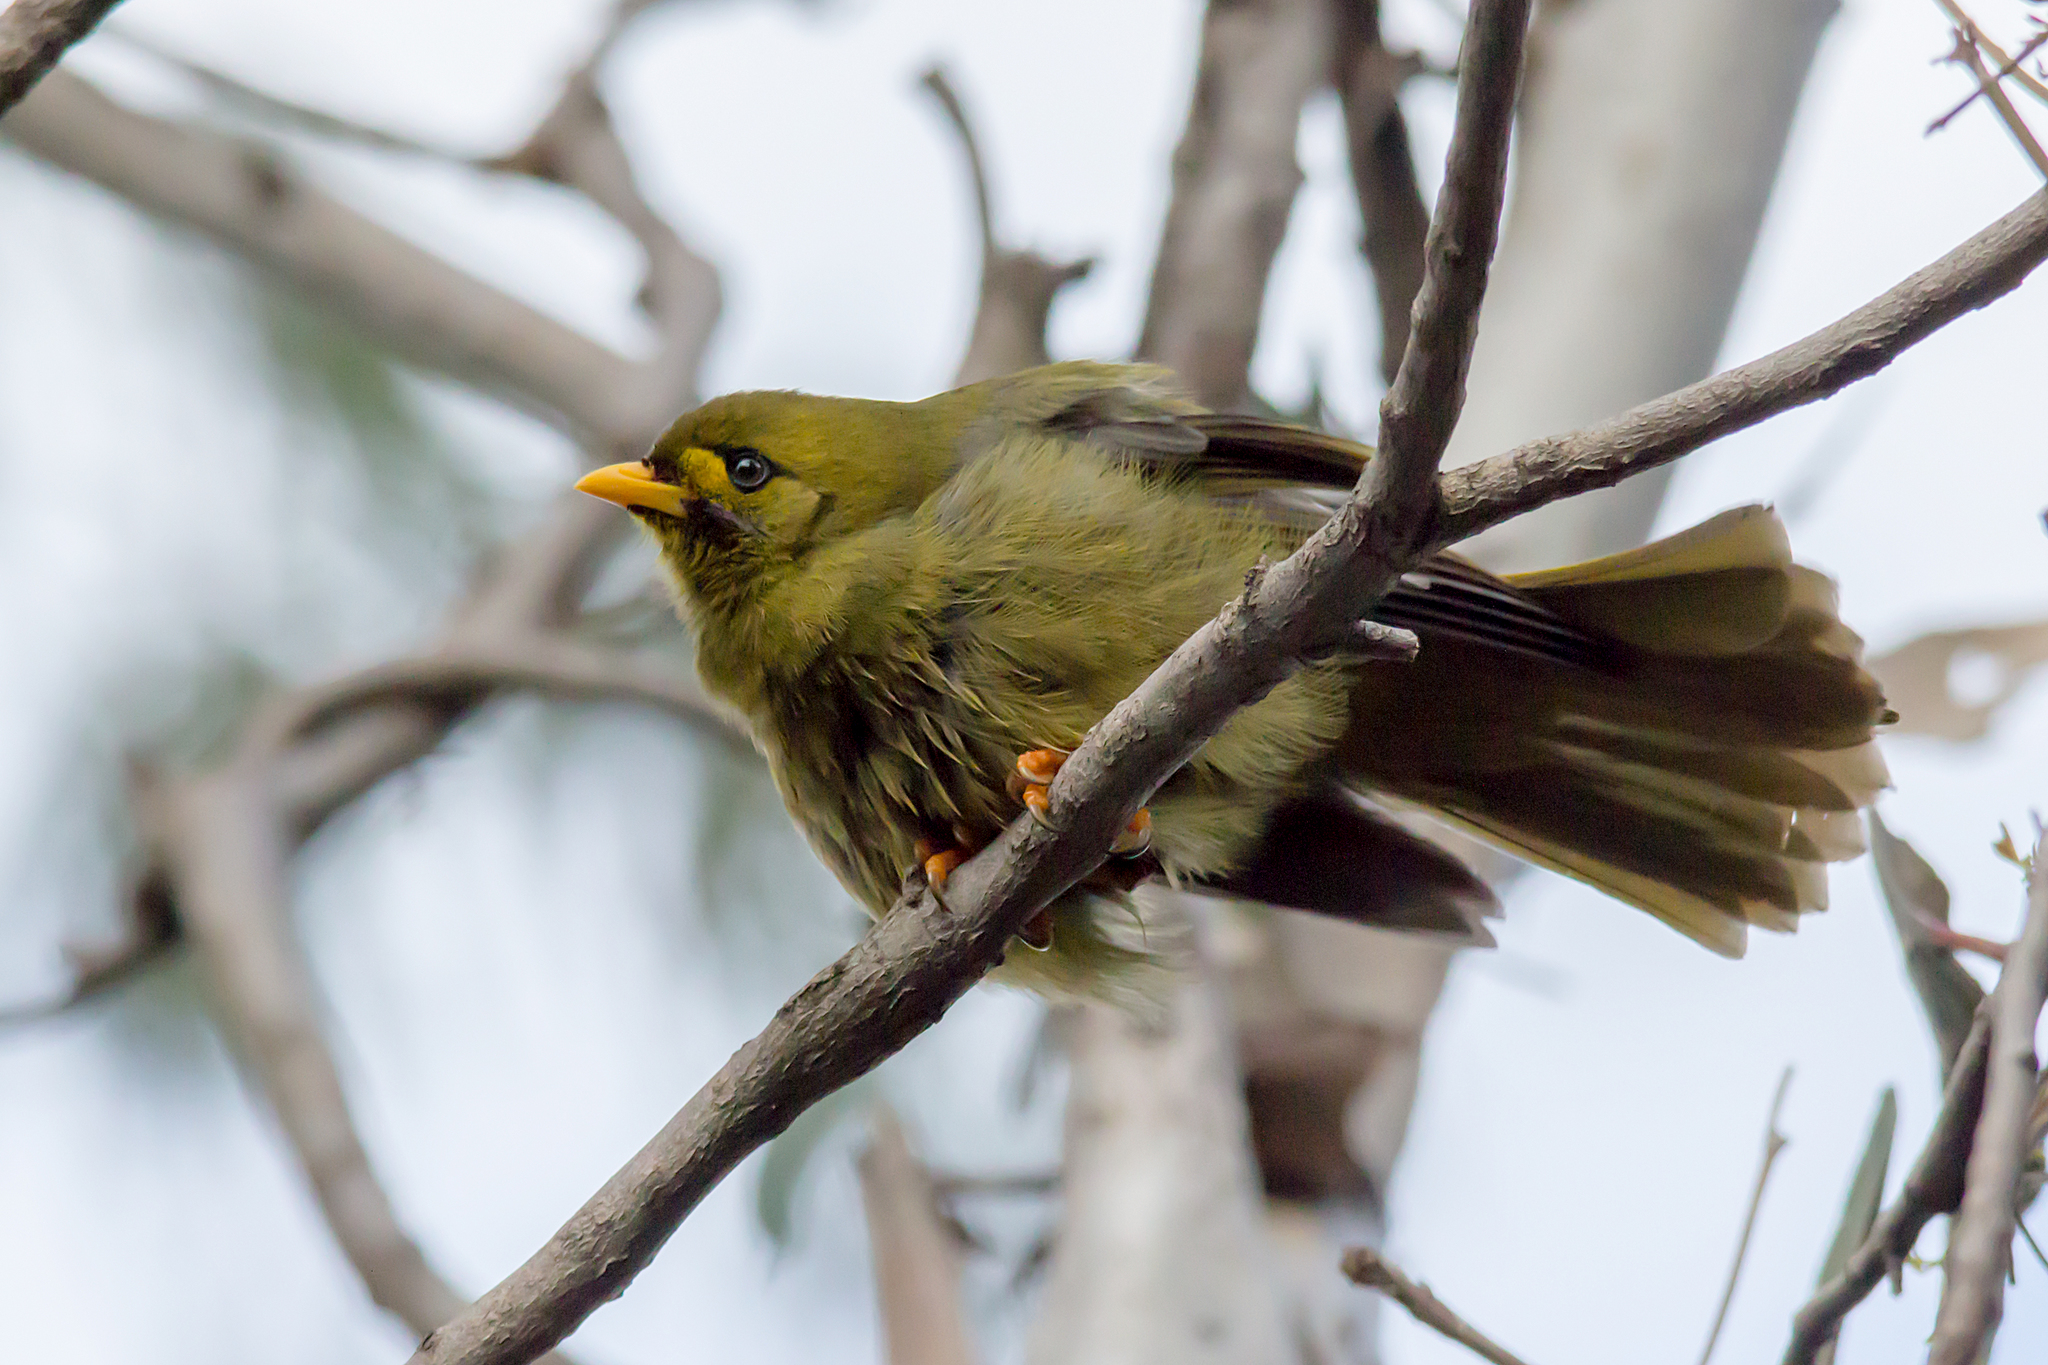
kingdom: Animalia
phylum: Chordata
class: Aves
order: Passeriformes
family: Meliphagidae
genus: Manorina
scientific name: Manorina melanophrys
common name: Bell miner
